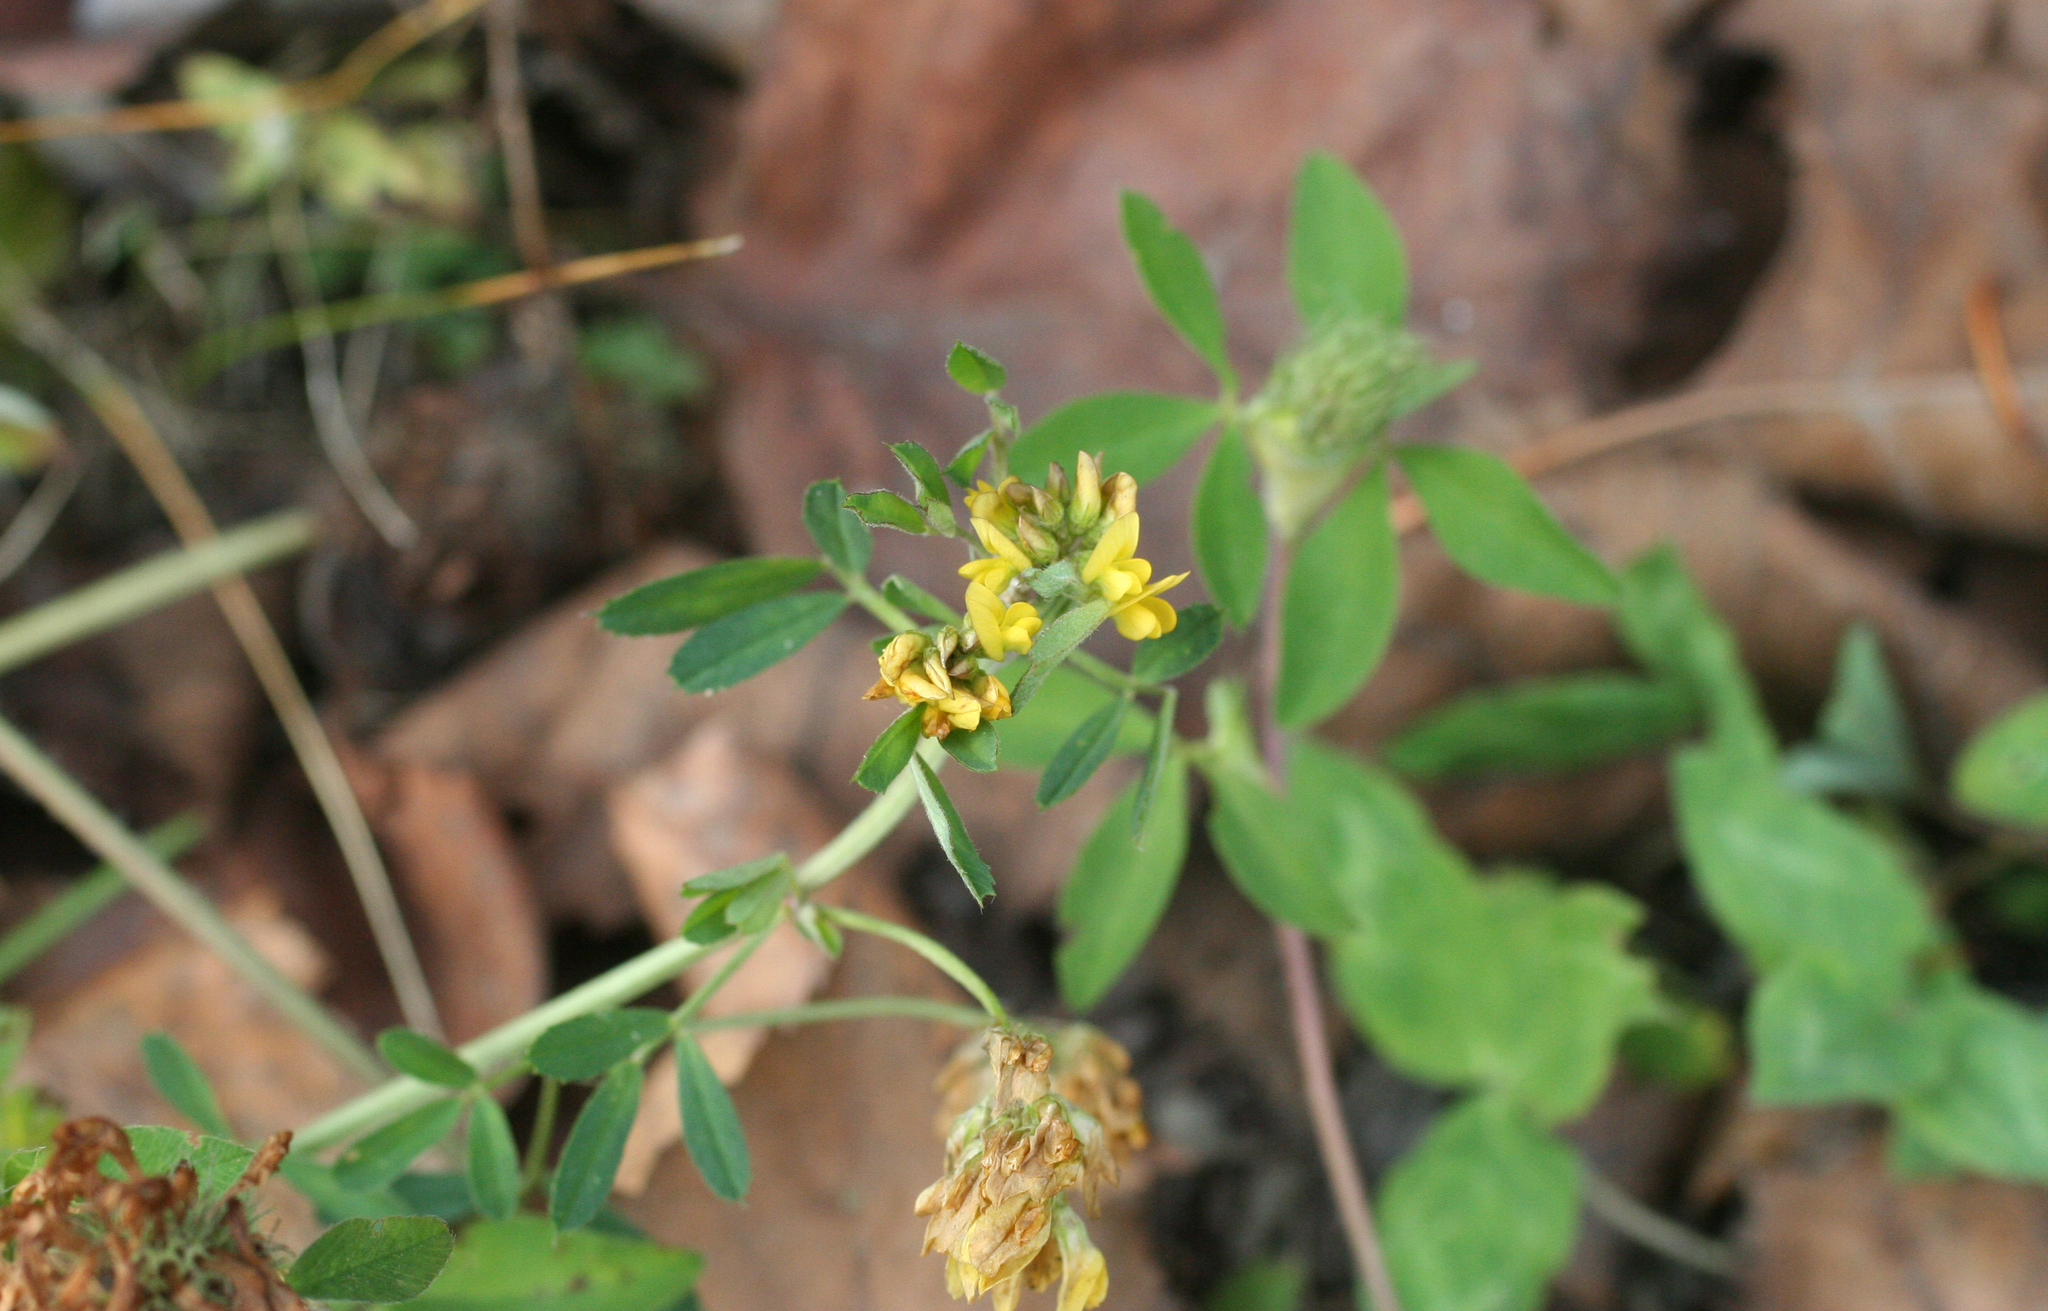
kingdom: Plantae
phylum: Tracheophyta
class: Magnoliopsida
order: Fabales
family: Fabaceae
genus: Medicago
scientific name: Medicago falcata
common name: Sickle medick
